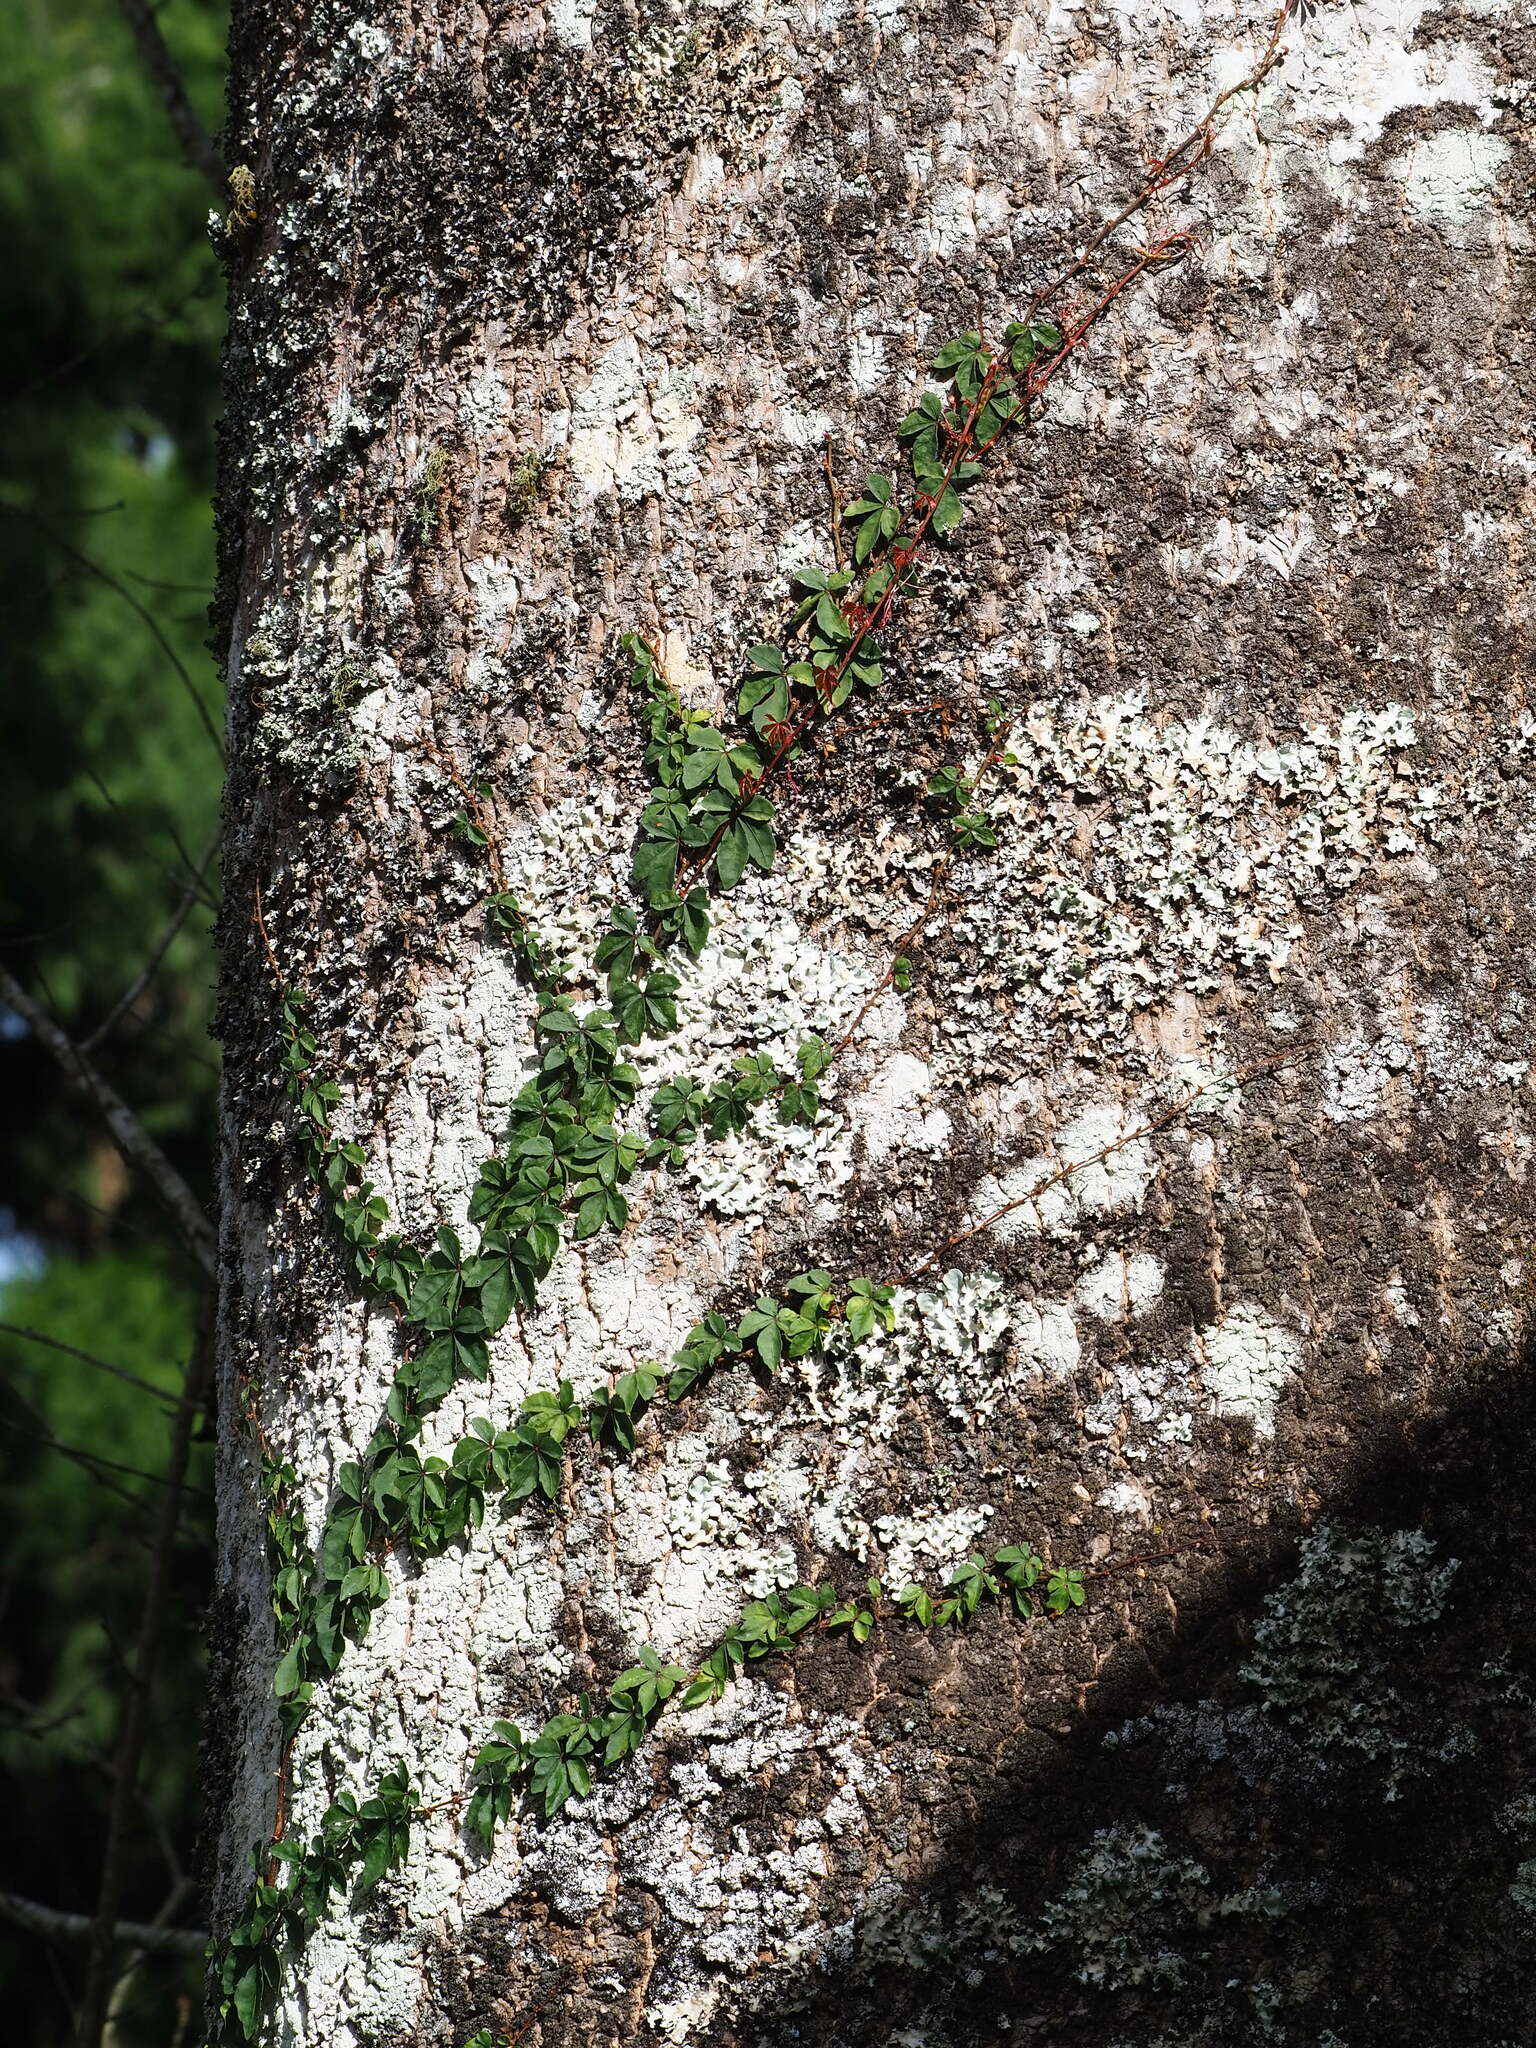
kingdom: Plantae
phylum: Tracheophyta
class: Magnoliopsida
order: Vitales
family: Vitaceae
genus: Tetrastigma
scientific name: Tetrastigma obtectum
